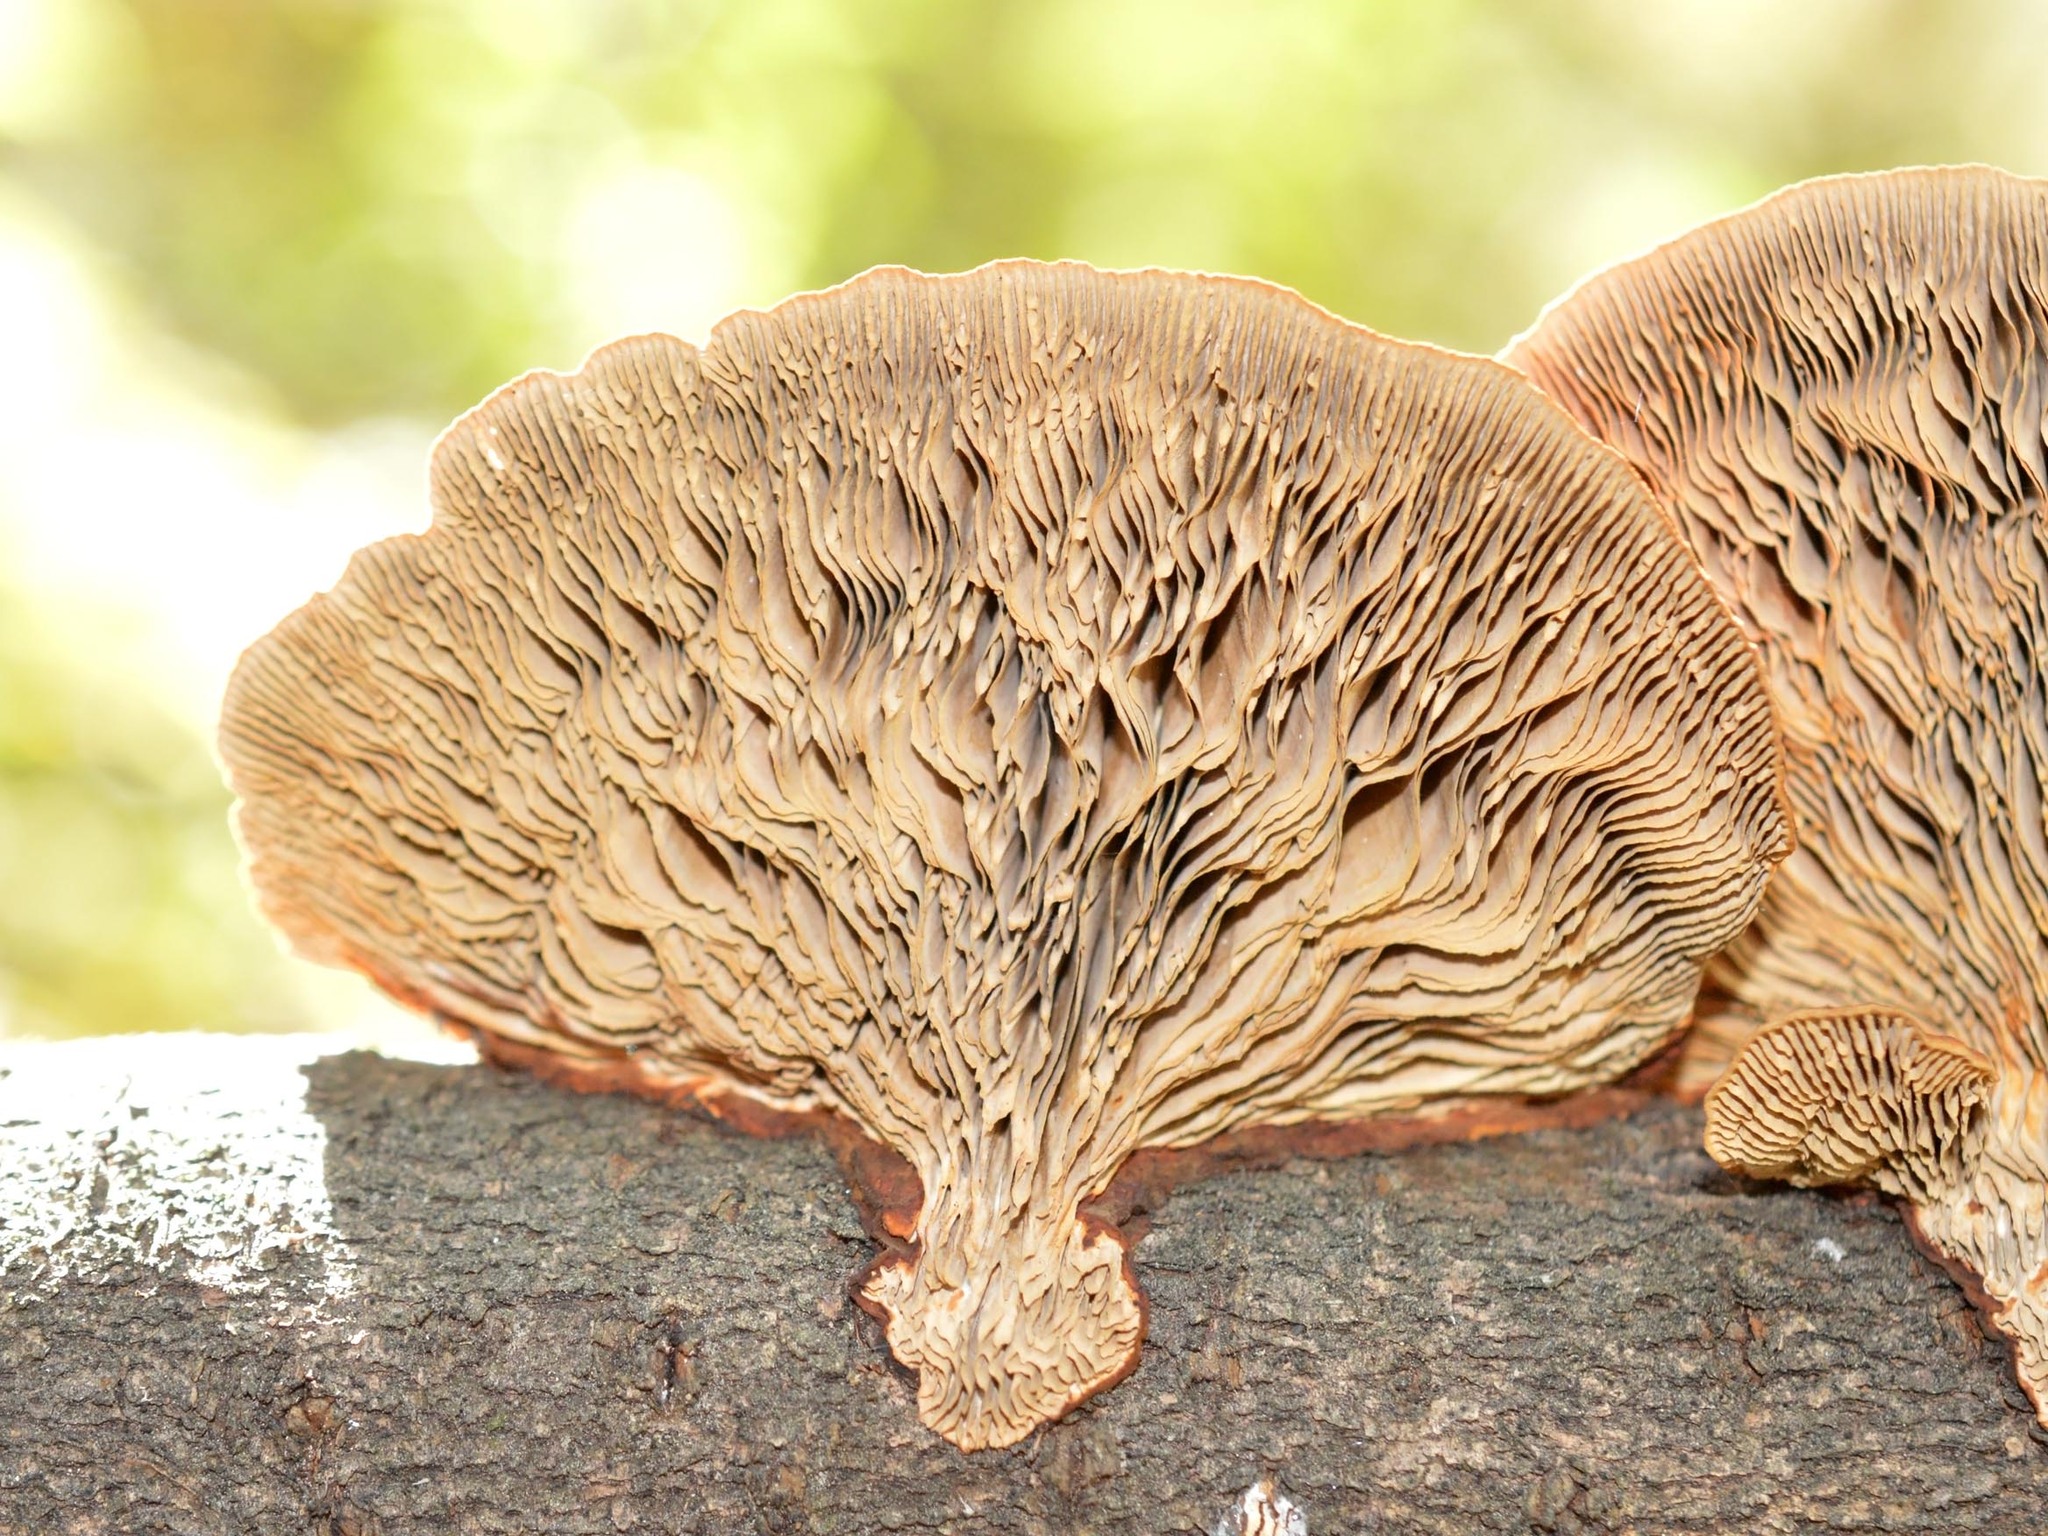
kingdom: Fungi
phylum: Basidiomycota
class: Agaricomycetes
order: Polyporales
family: Polyporaceae
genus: Daedaleopsis
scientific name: Daedaleopsis tricolor
